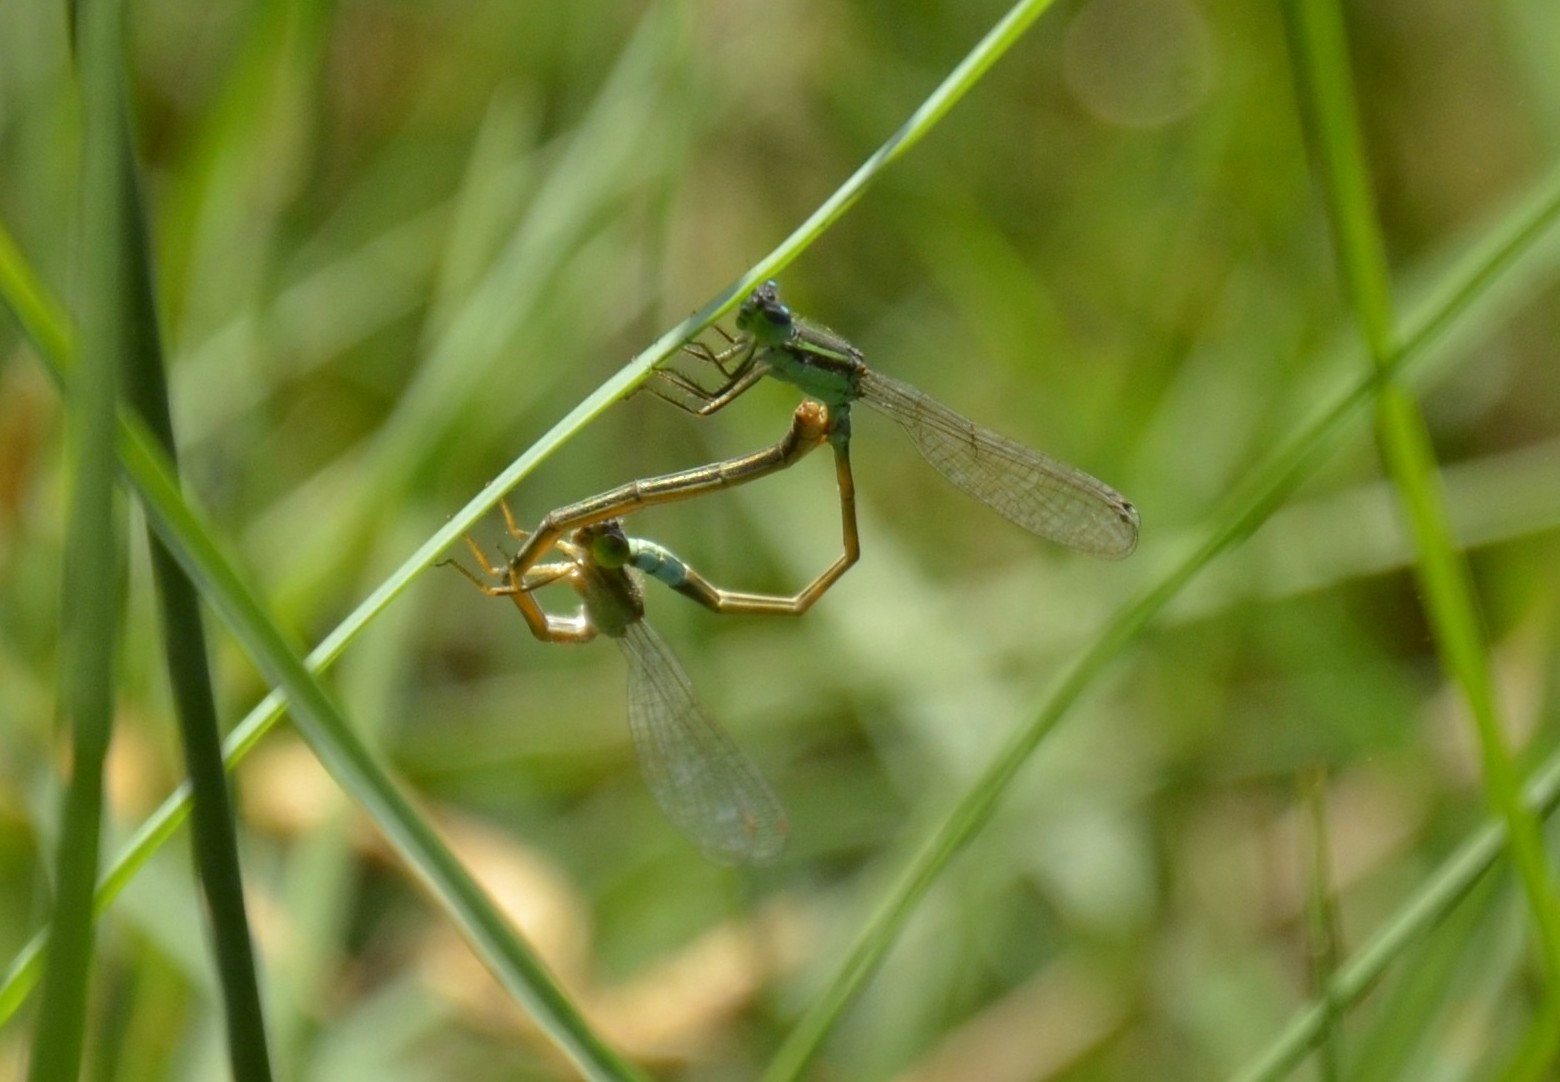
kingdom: Animalia
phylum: Arthropoda
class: Insecta
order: Odonata
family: Coenagrionidae
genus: Ischnura
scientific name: Ischnura senegalensis
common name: Tropical bluetail
